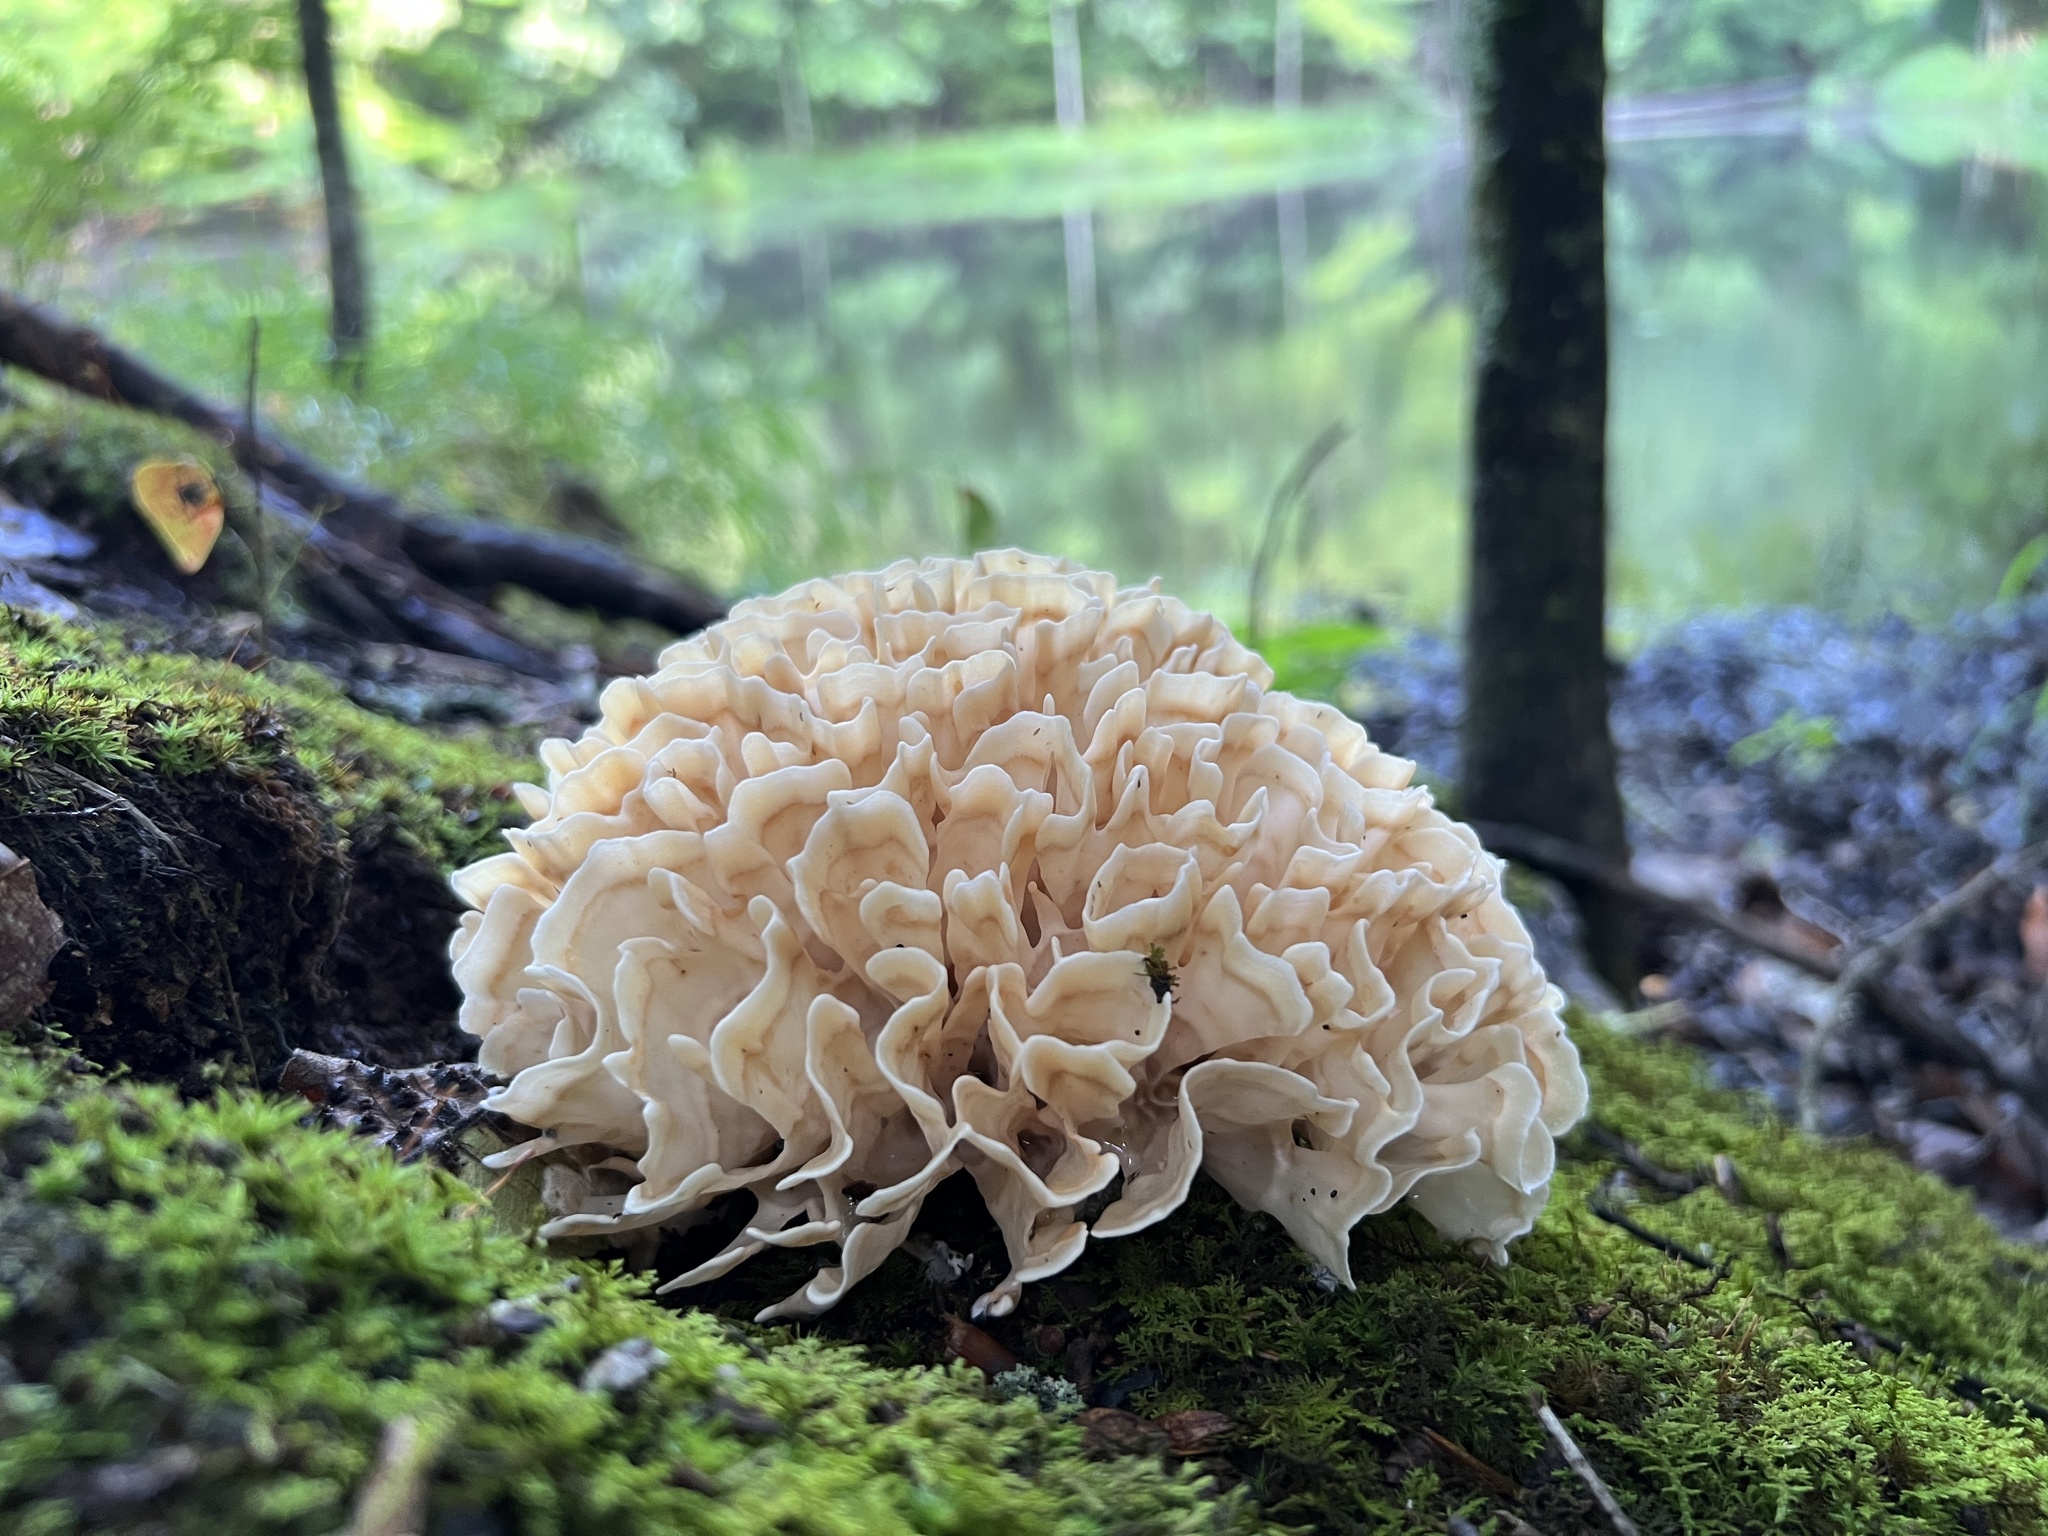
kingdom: Fungi
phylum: Basidiomycota
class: Agaricomycetes
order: Polyporales
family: Sparassidaceae
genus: Sparassis
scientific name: Sparassis spathulata
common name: Eastern cauliflower mushroom
